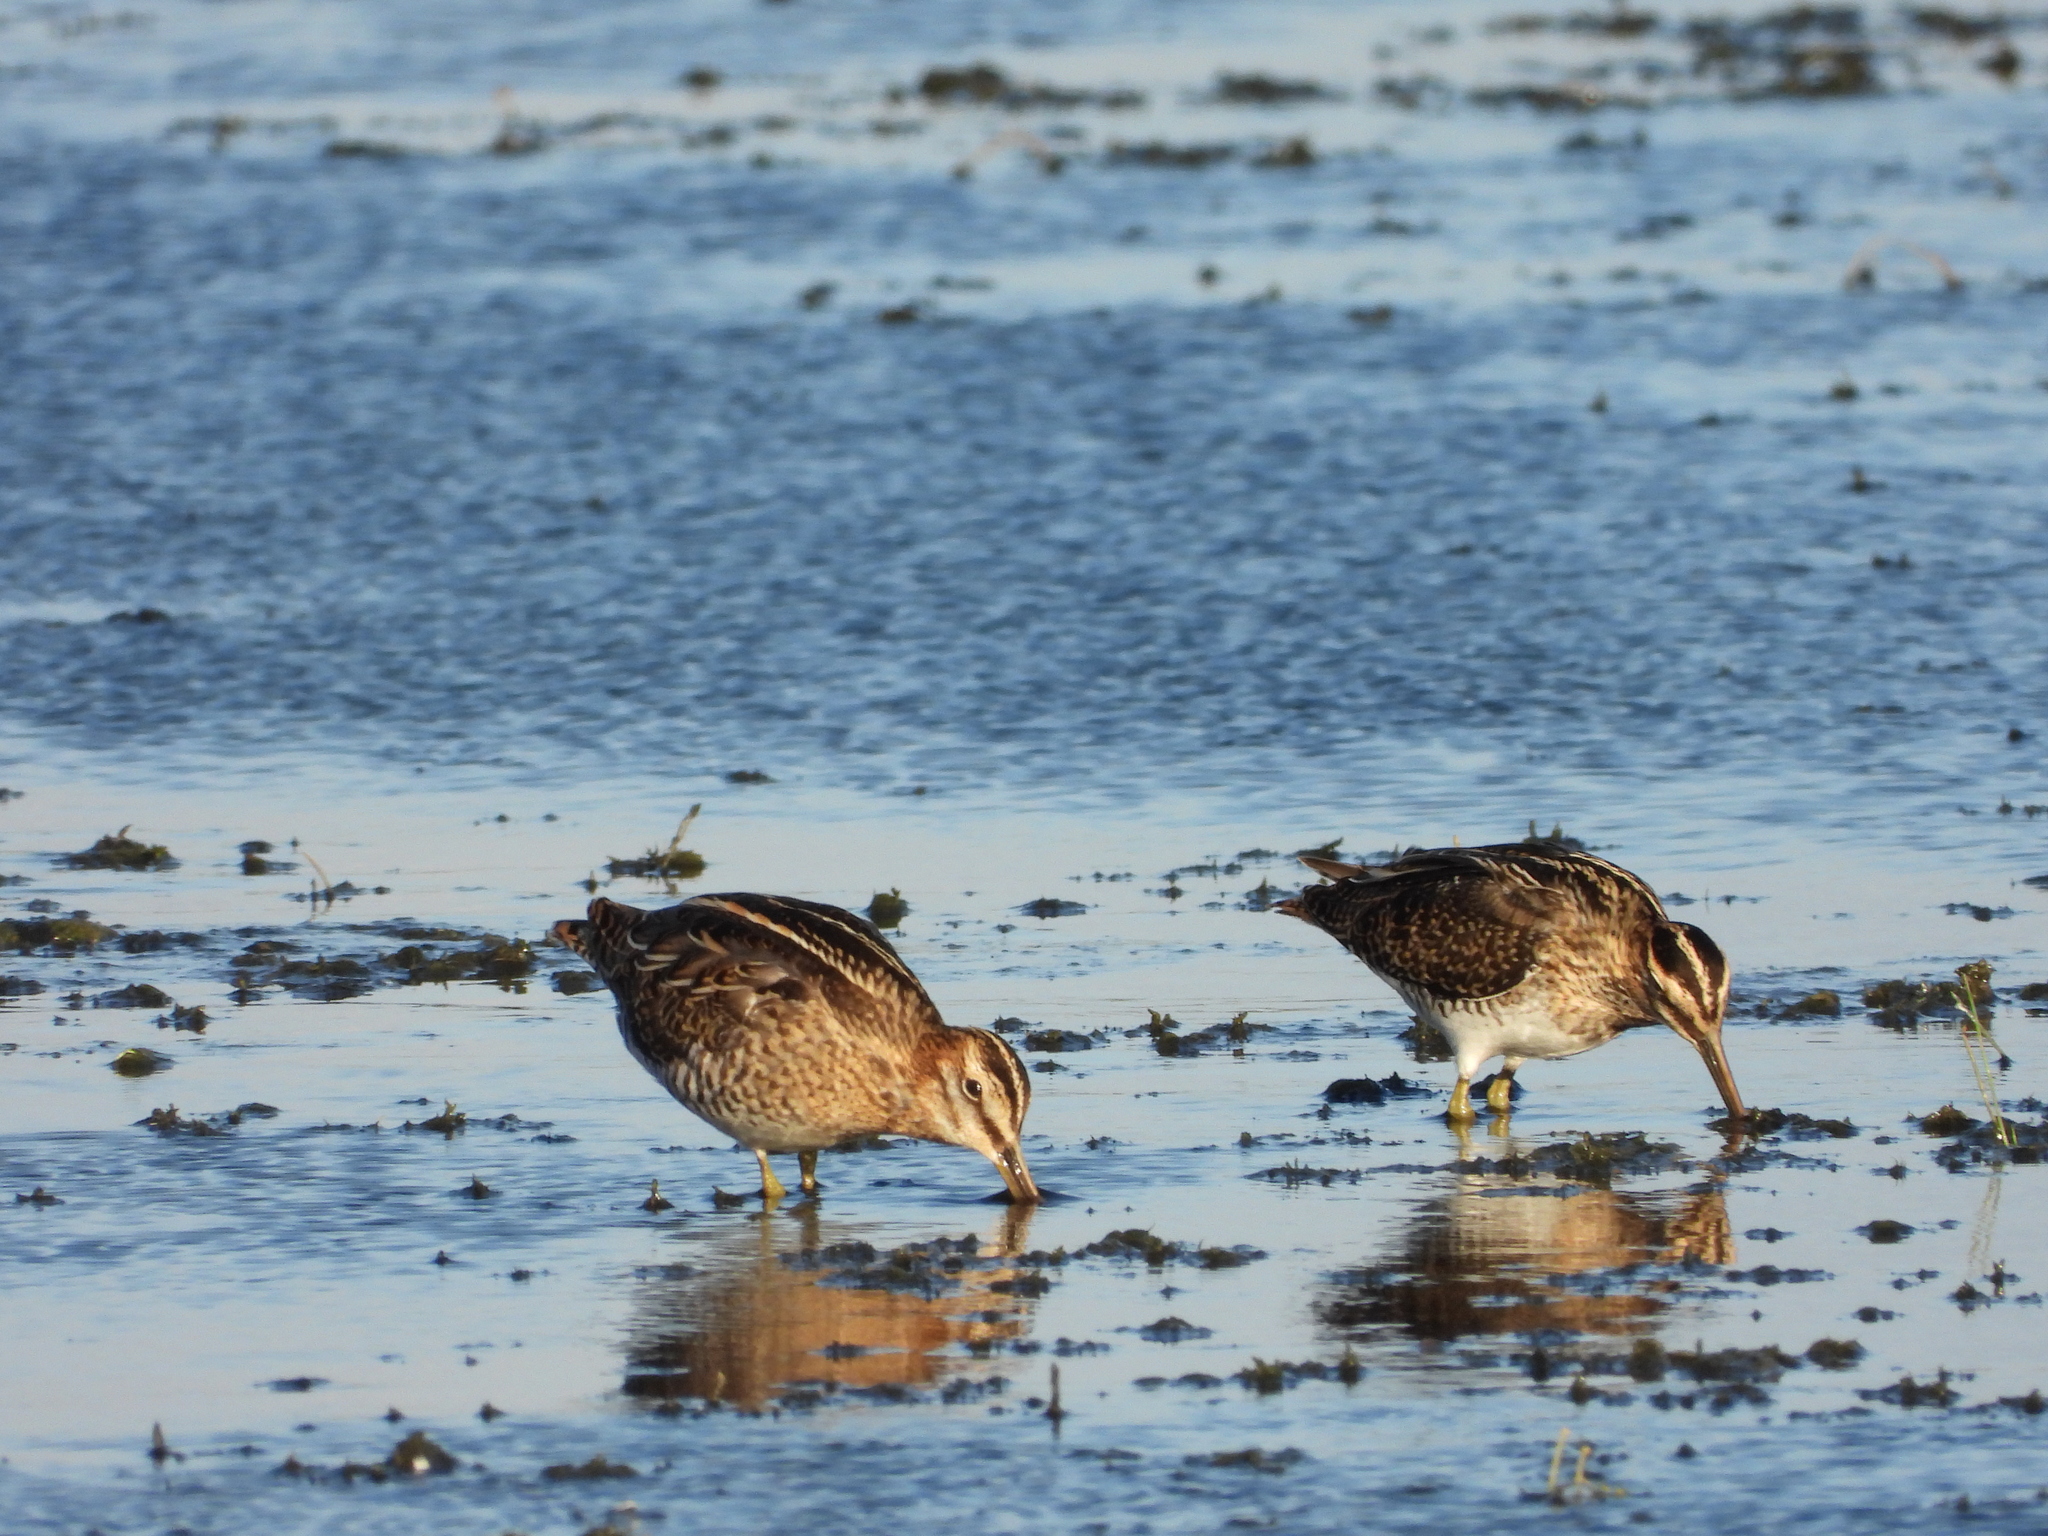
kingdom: Animalia
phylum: Chordata
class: Aves
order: Charadriiformes
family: Scolopacidae
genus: Gallinago
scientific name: Gallinago gallinago
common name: Common snipe
